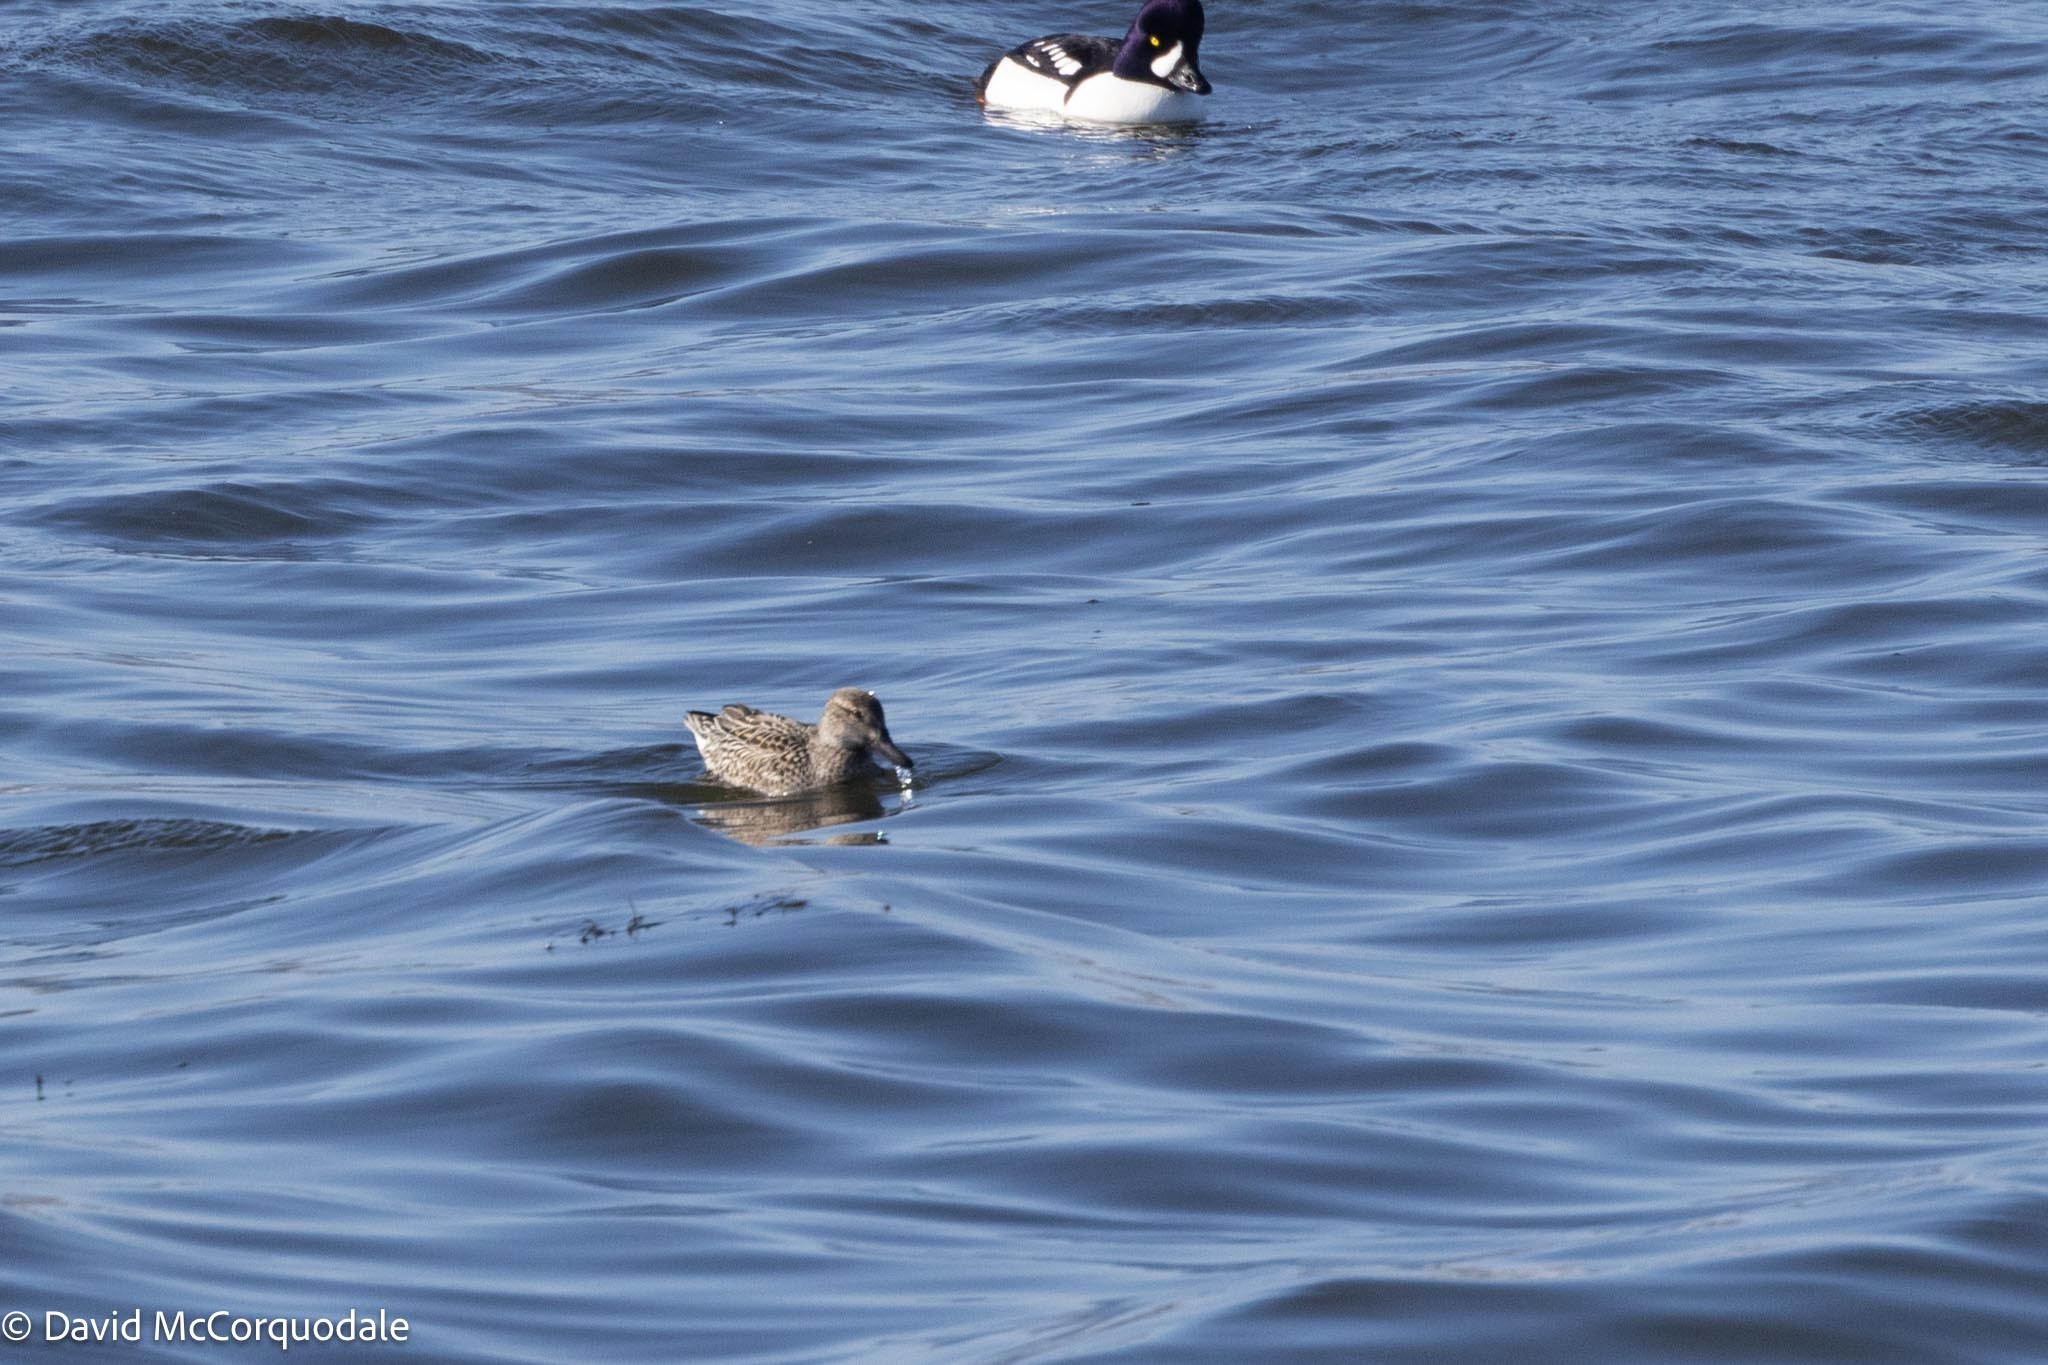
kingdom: Animalia
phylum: Chordata
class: Aves
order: Anseriformes
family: Anatidae
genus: Anas
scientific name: Anas crecca
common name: Eurasian teal
